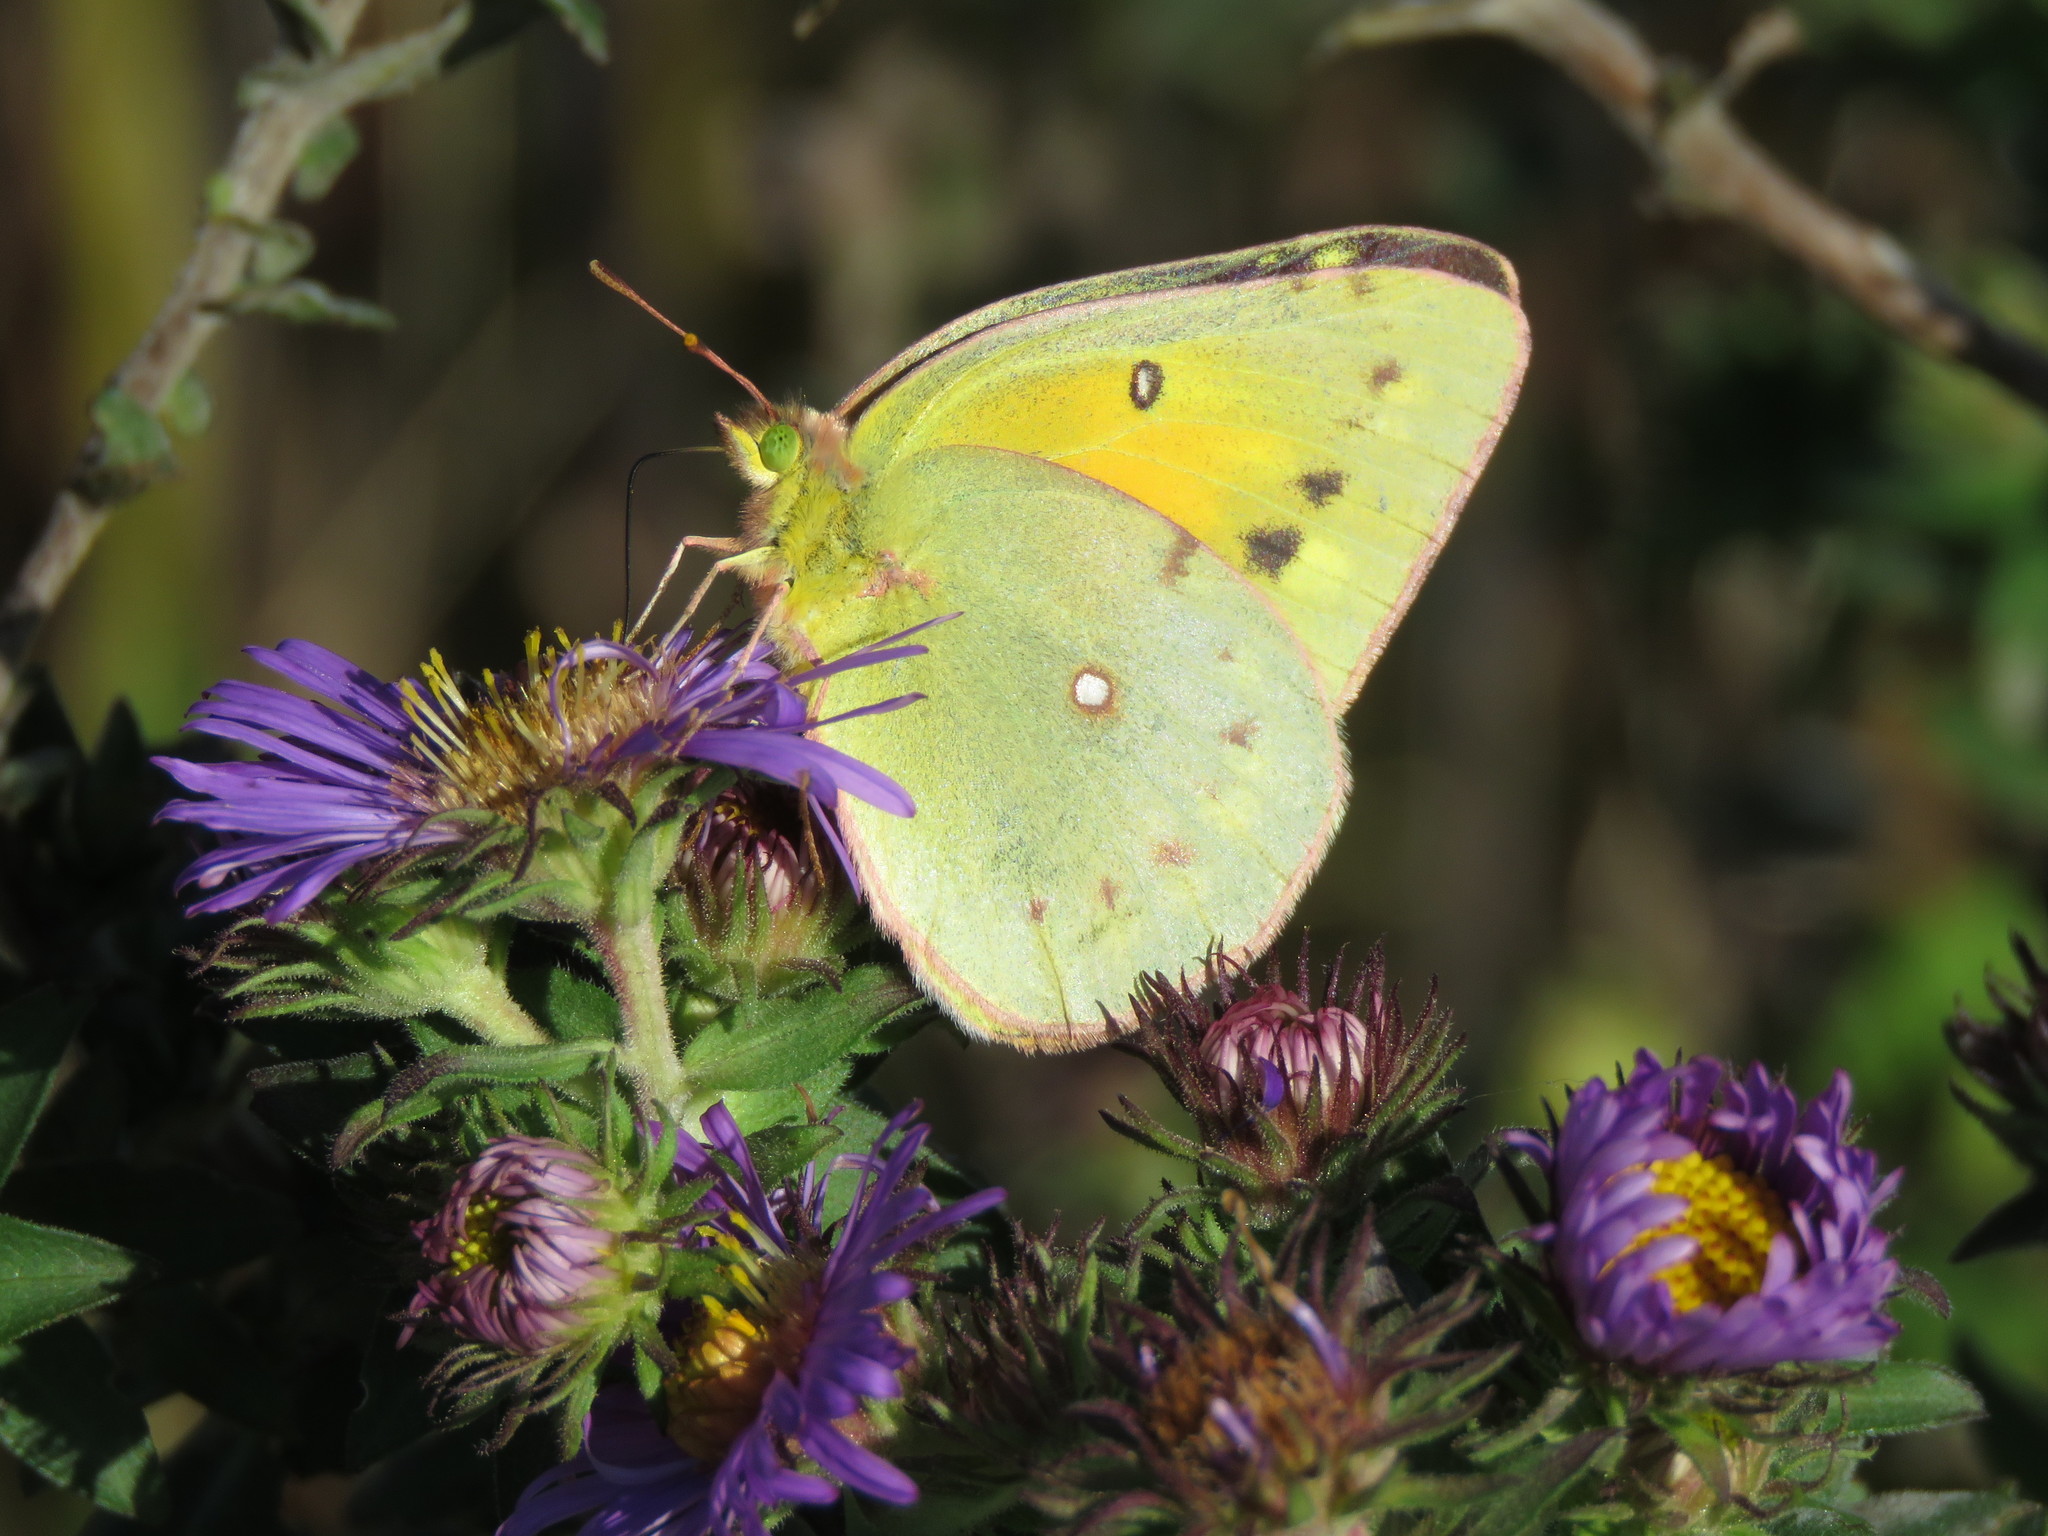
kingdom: Animalia
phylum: Arthropoda
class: Insecta
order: Lepidoptera
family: Pieridae
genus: Colias
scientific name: Colias eurytheme
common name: Alfalfa butterfly
